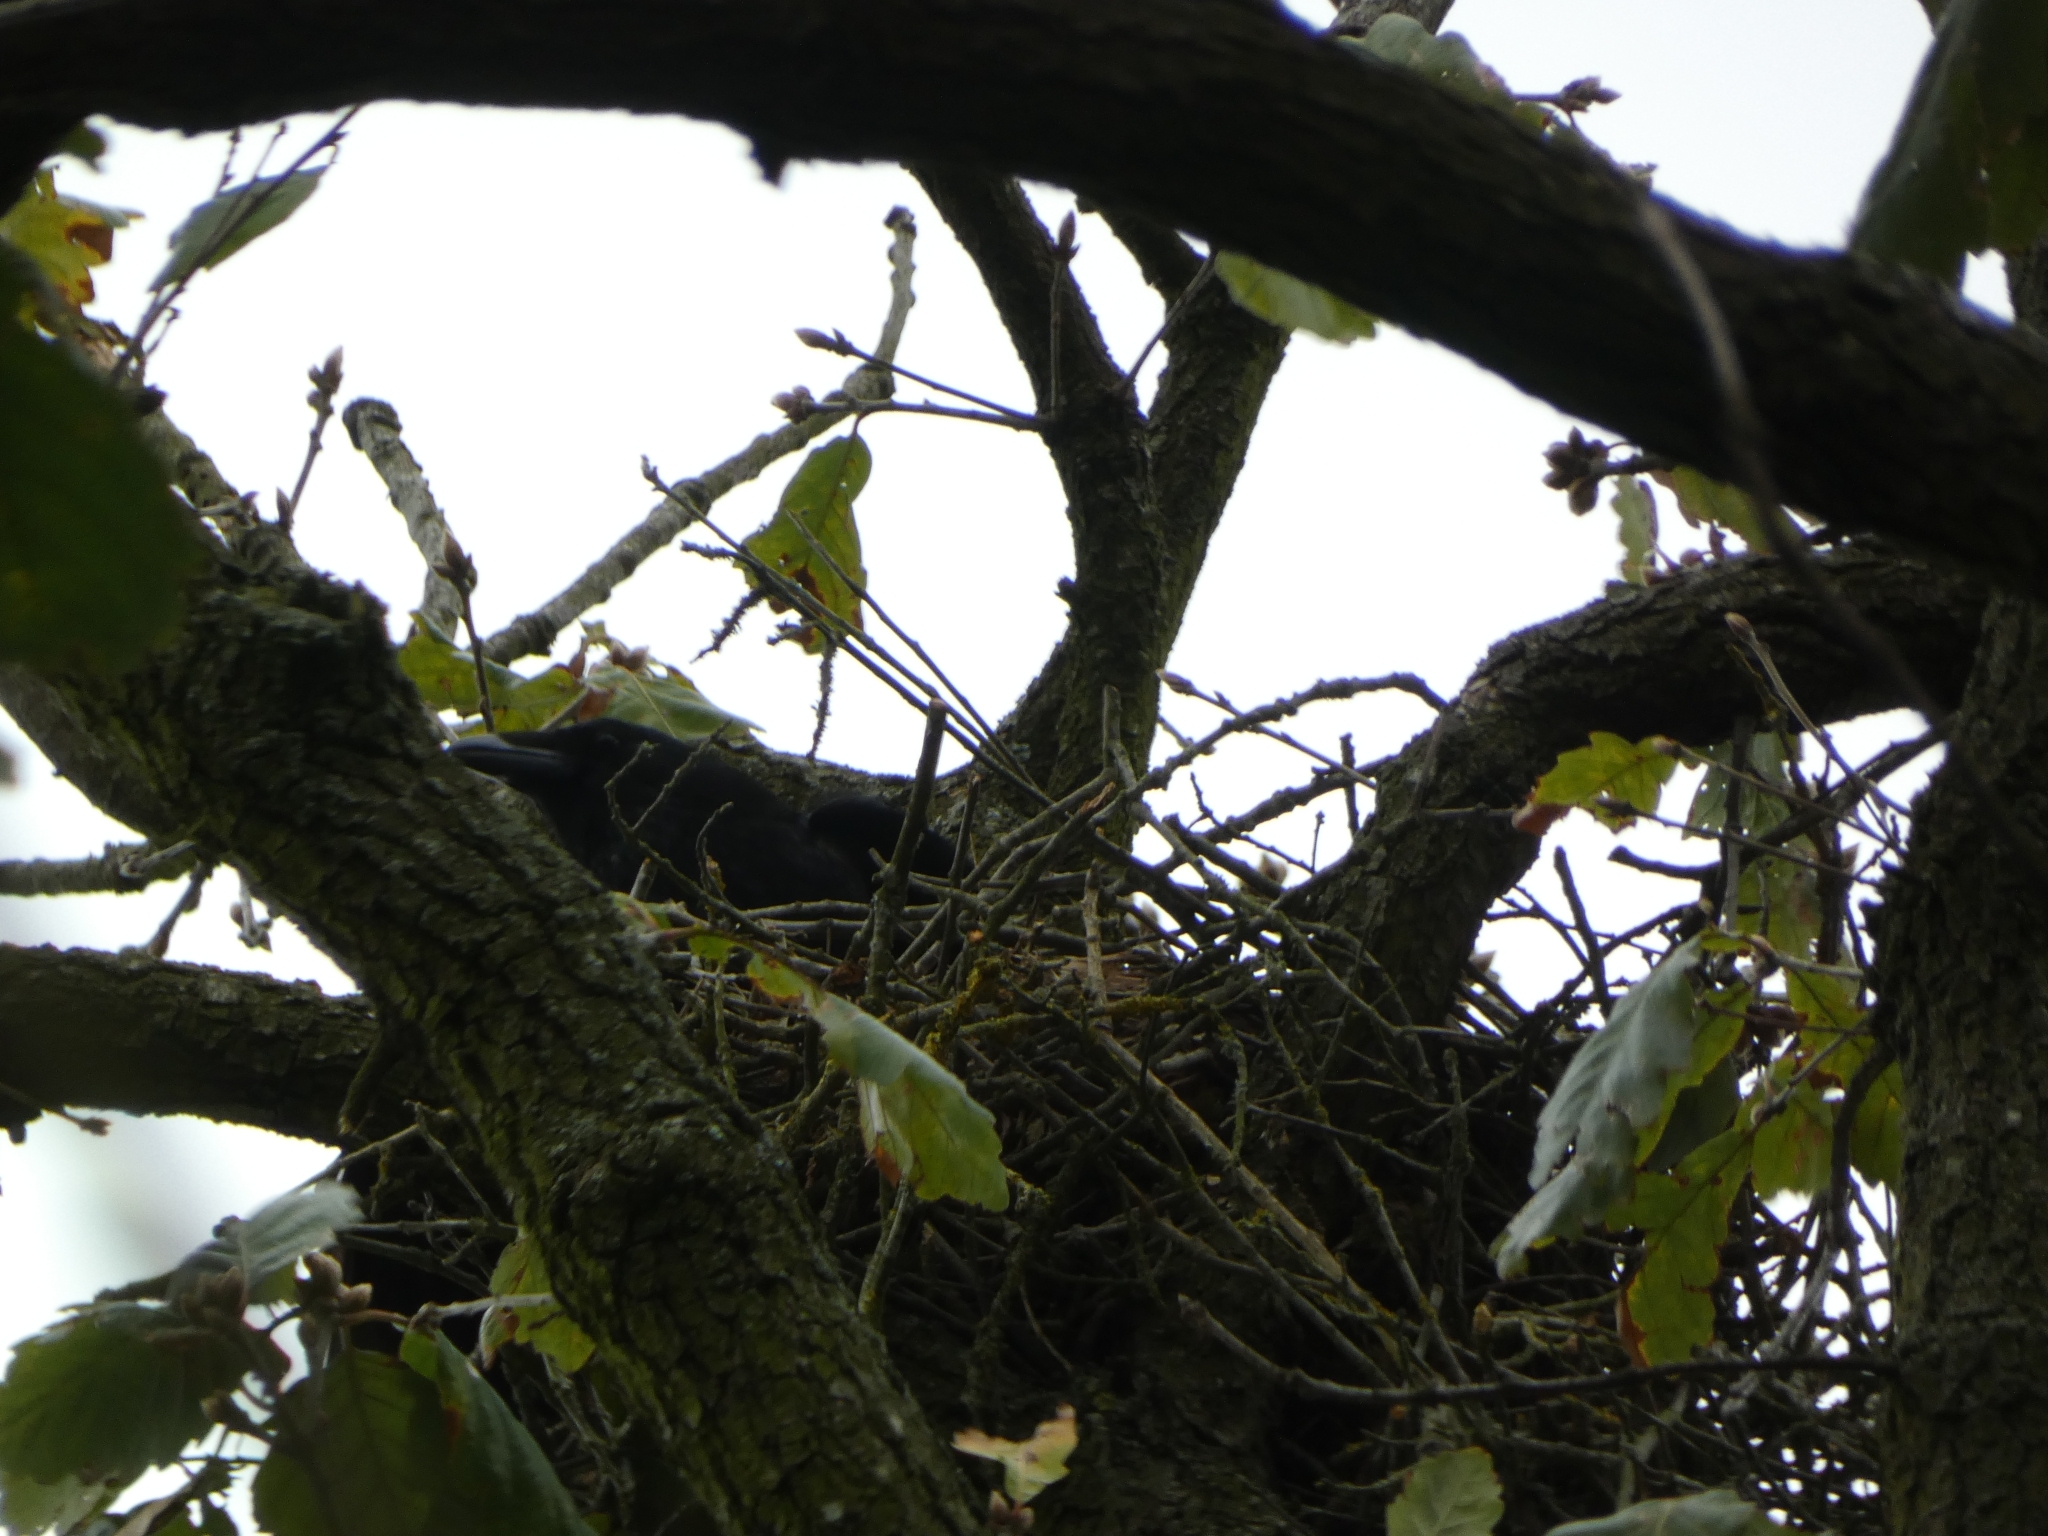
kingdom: Animalia
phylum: Chordata
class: Aves
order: Passeriformes
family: Corvidae
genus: Corvus
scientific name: Corvus corone
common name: Carrion crow
